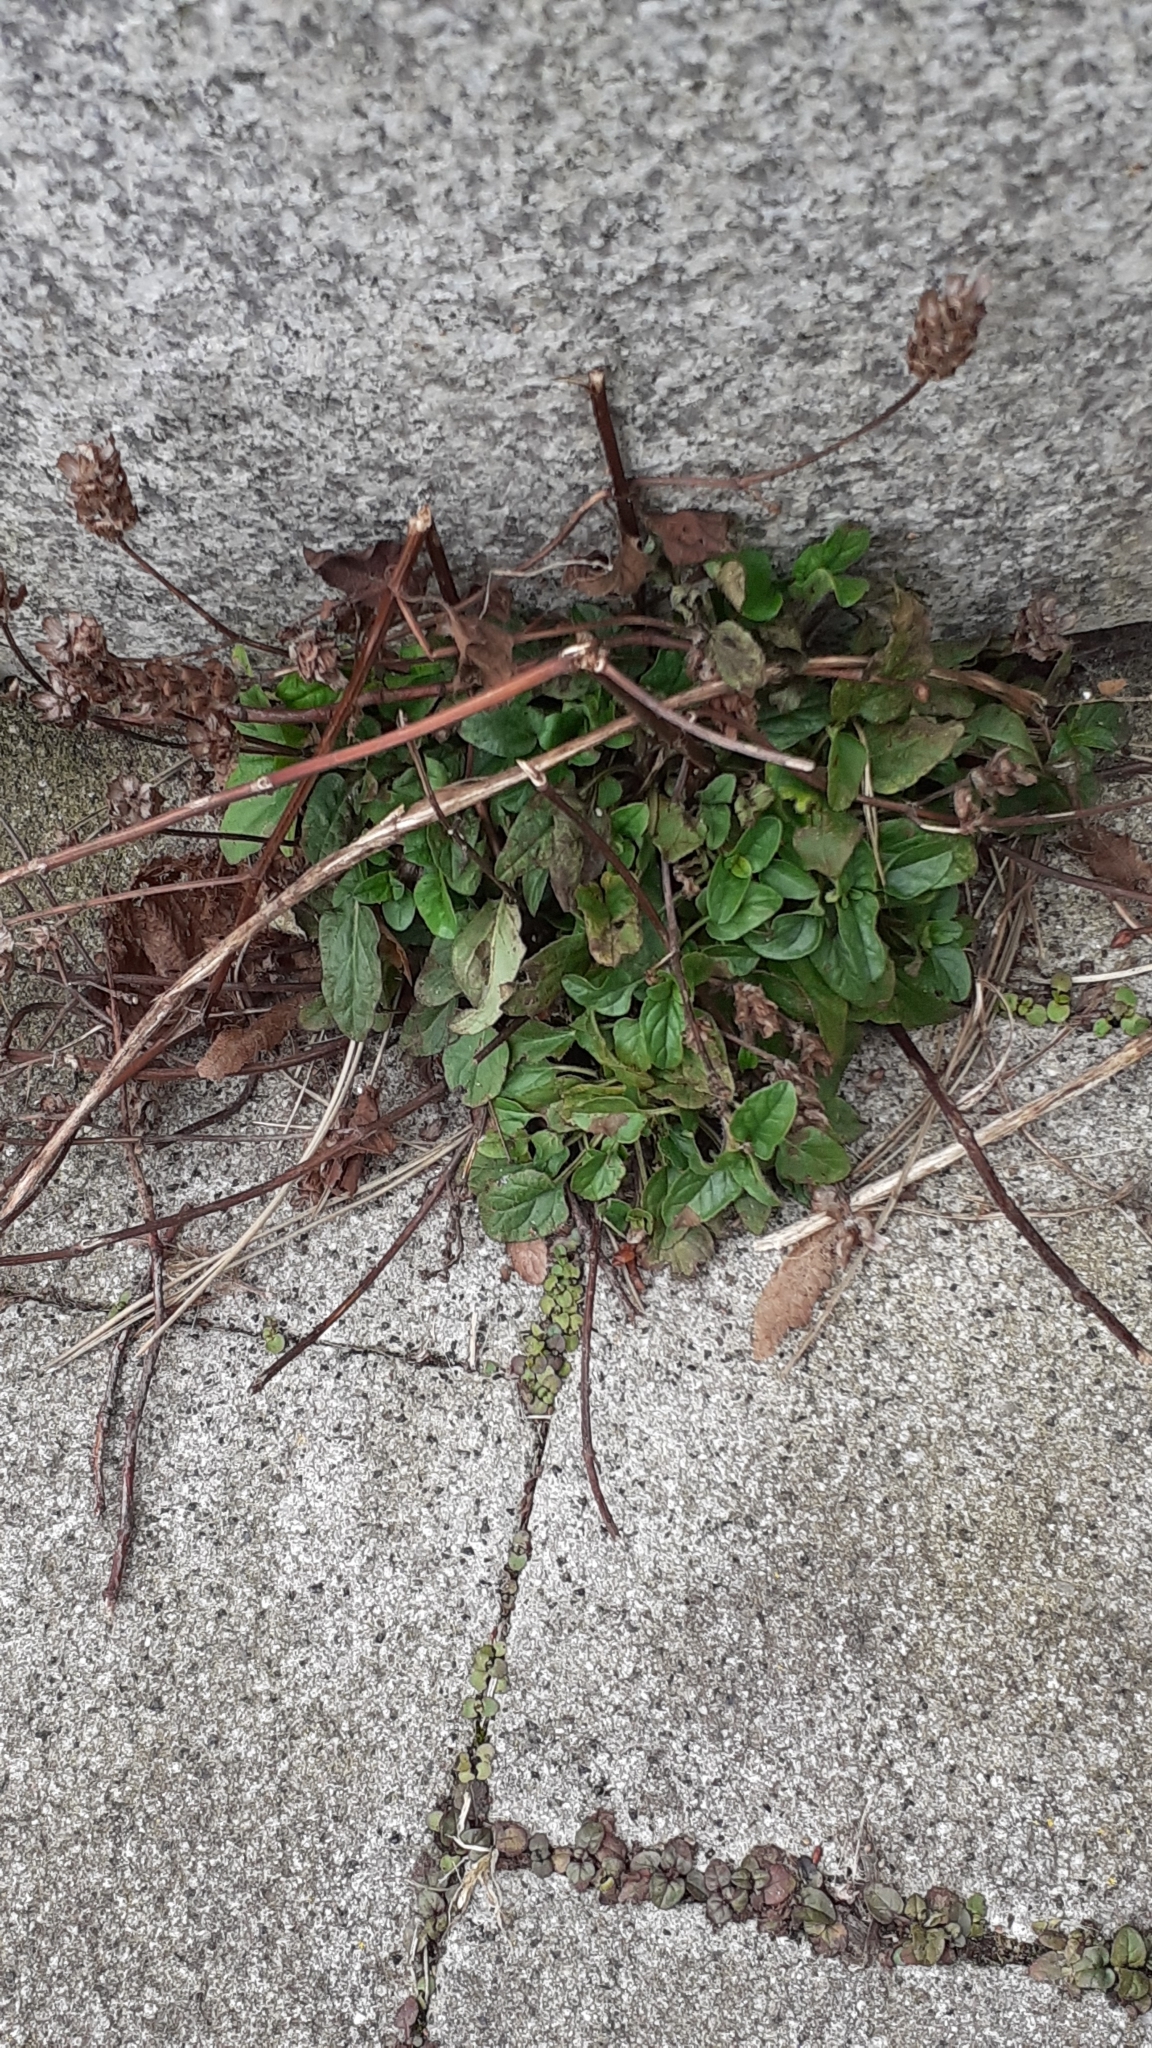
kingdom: Plantae
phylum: Tracheophyta
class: Magnoliopsida
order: Lamiales
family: Lamiaceae
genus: Prunella
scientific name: Prunella vulgaris
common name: Heal-all
